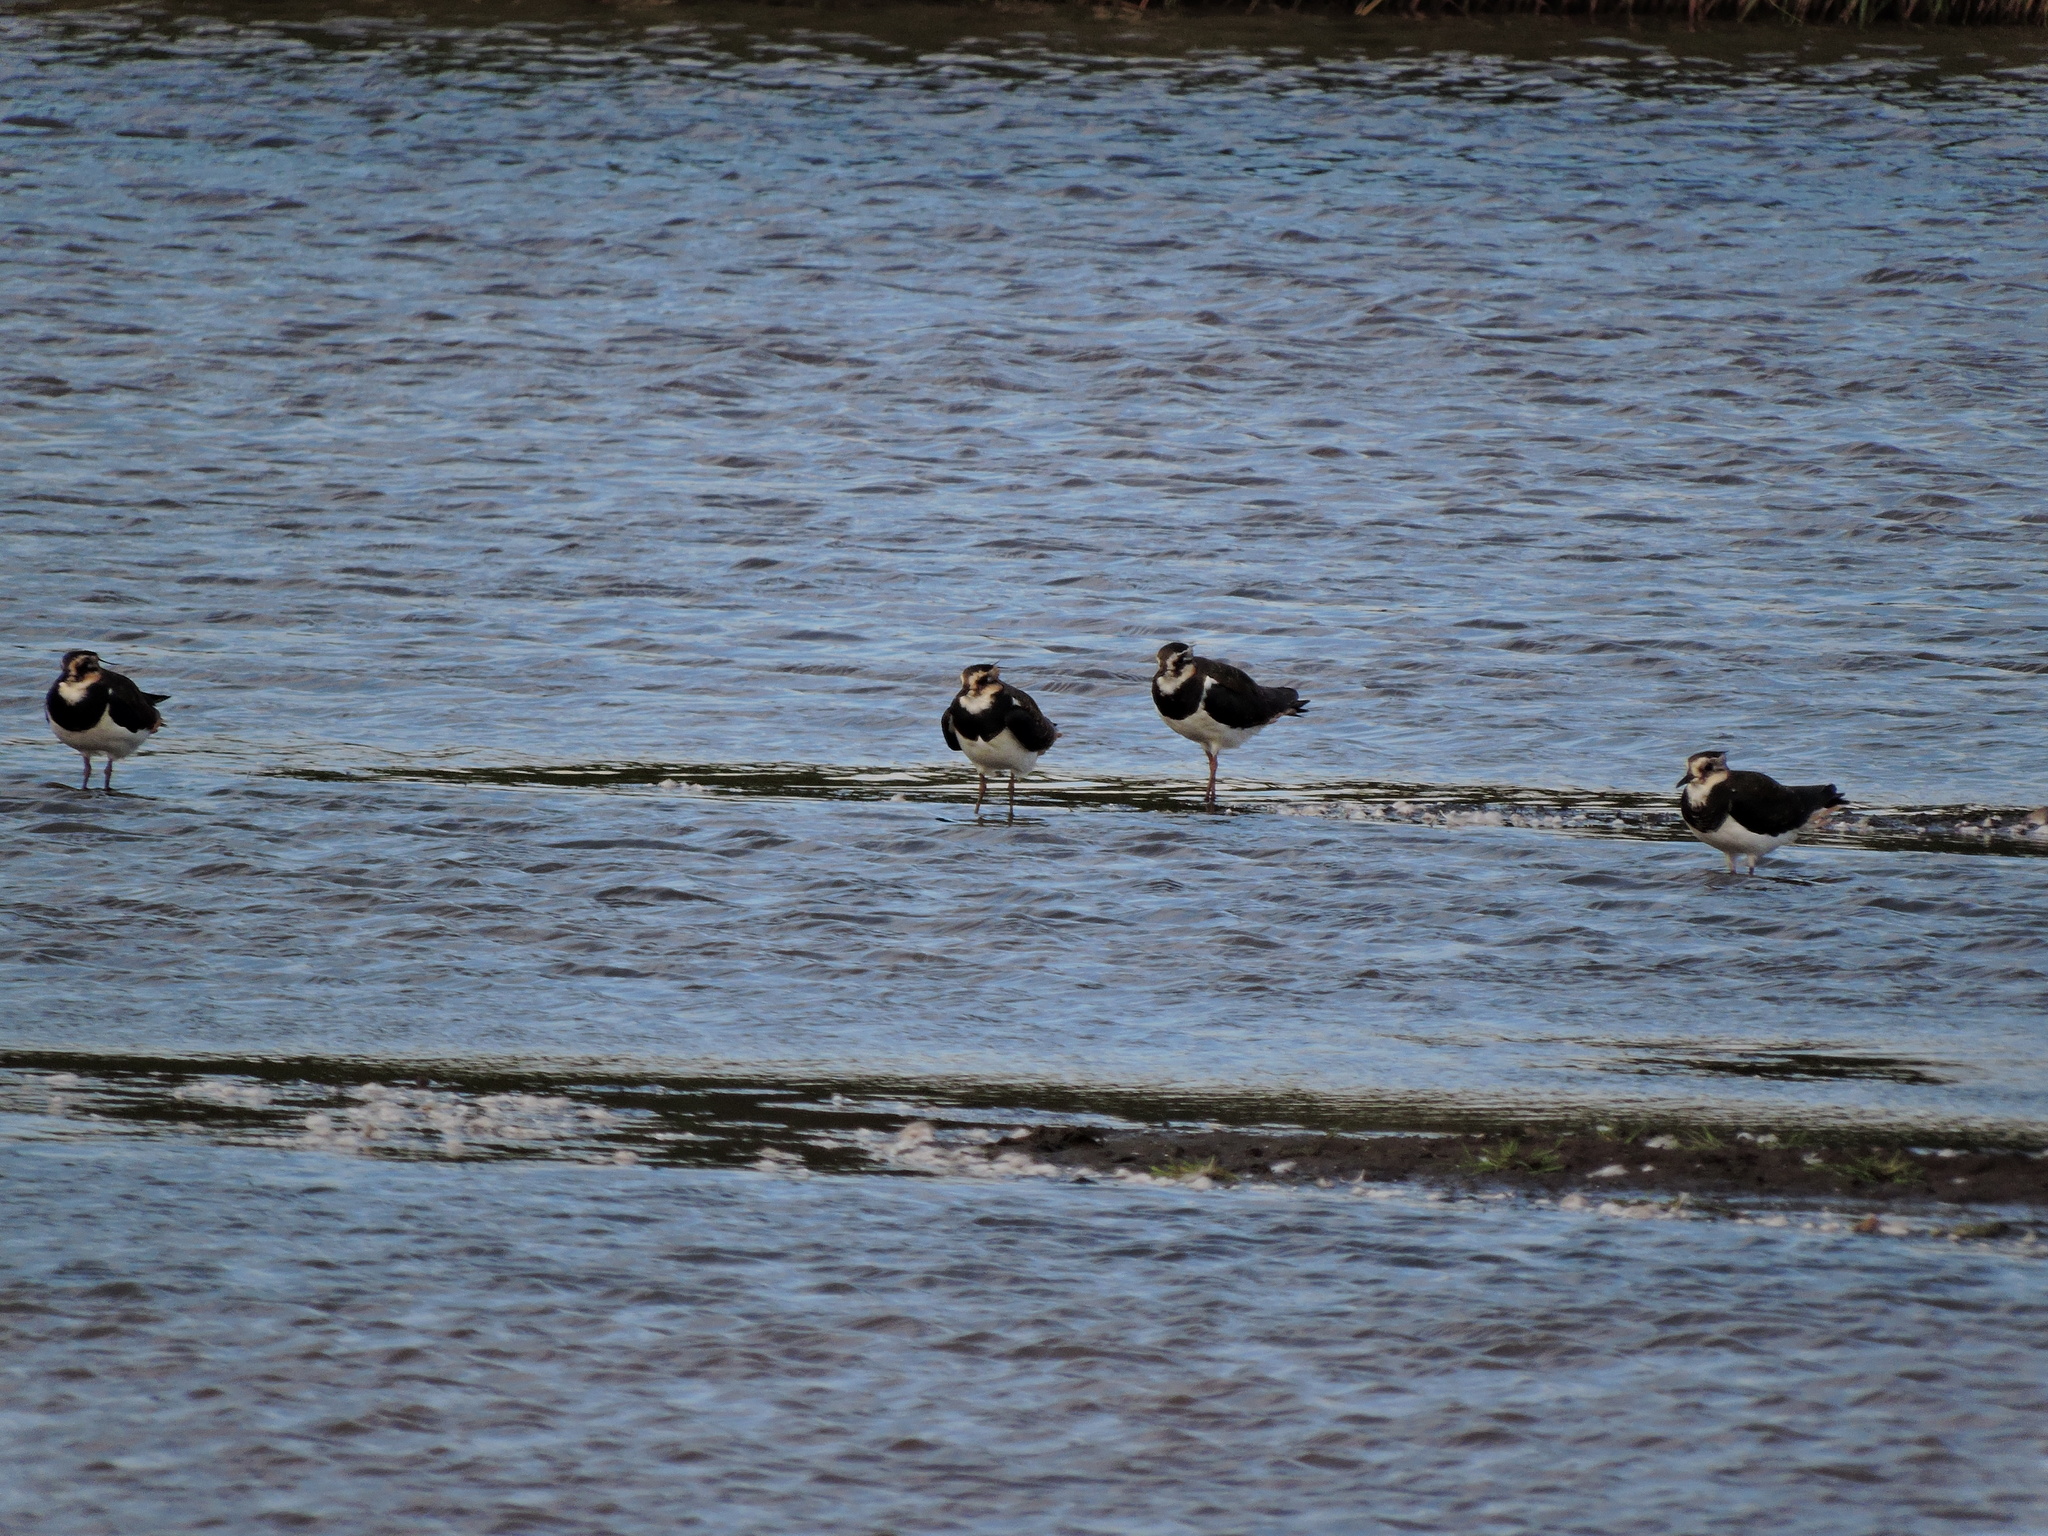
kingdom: Animalia
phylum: Chordata
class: Aves
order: Charadriiformes
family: Charadriidae
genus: Vanellus
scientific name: Vanellus vanellus
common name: Northern lapwing
